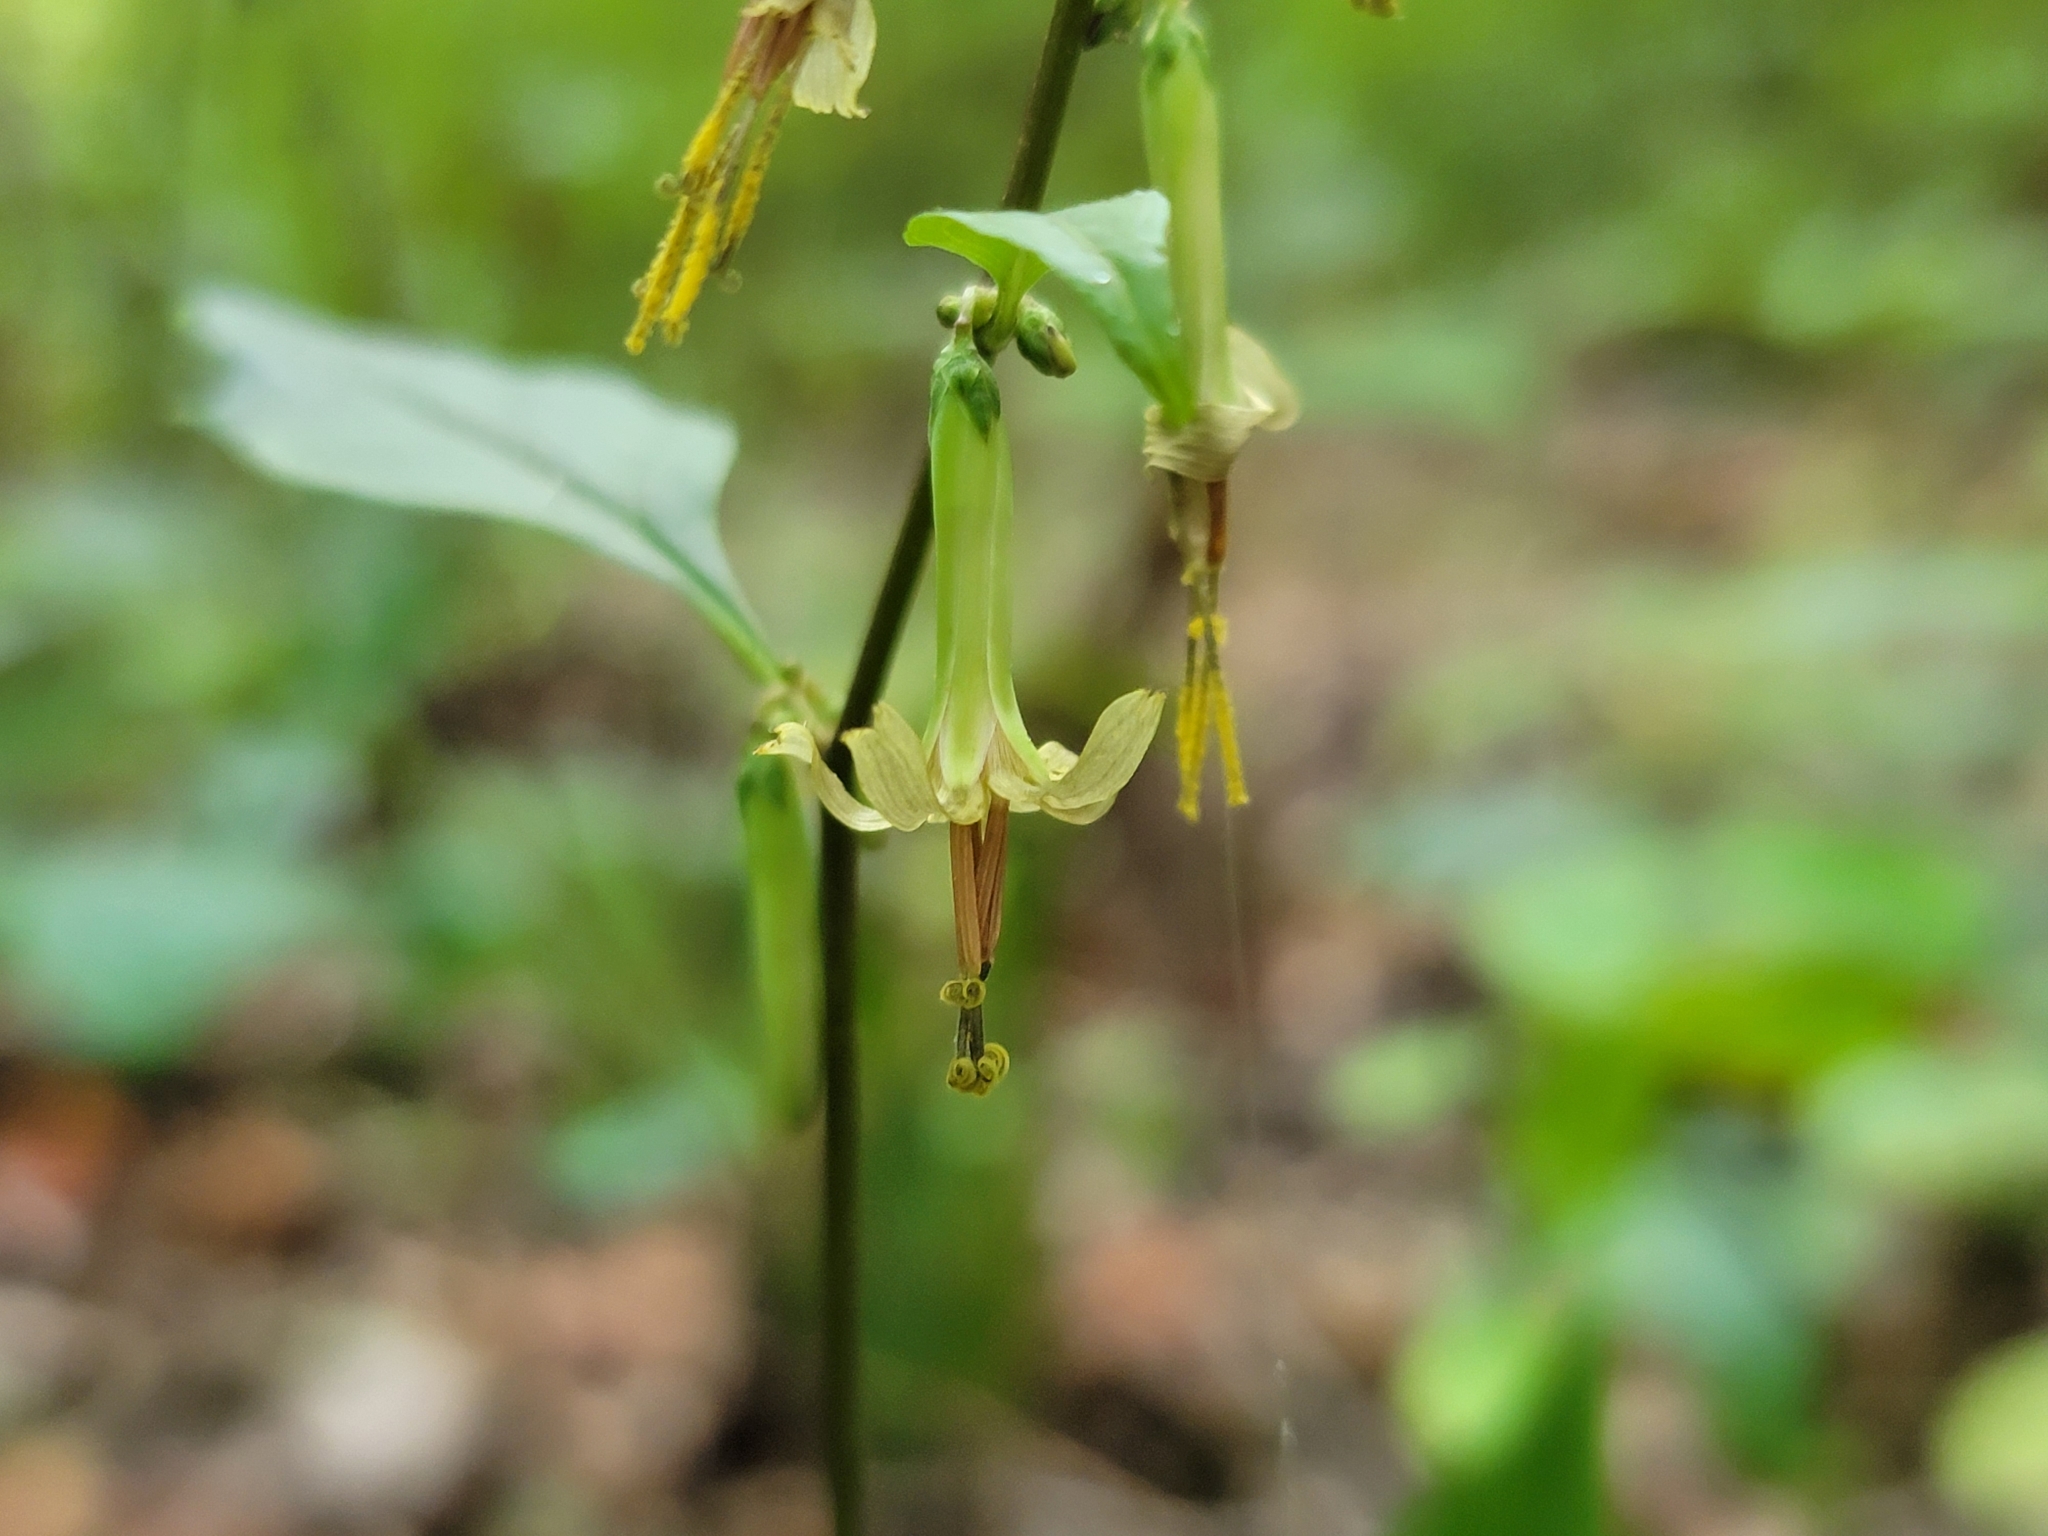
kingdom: Plantae
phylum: Tracheophyta
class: Magnoliopsida
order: Asterales
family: Asteraceae
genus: Nabalus
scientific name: Nabalus altissima
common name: Tall rattlesnakeroot
